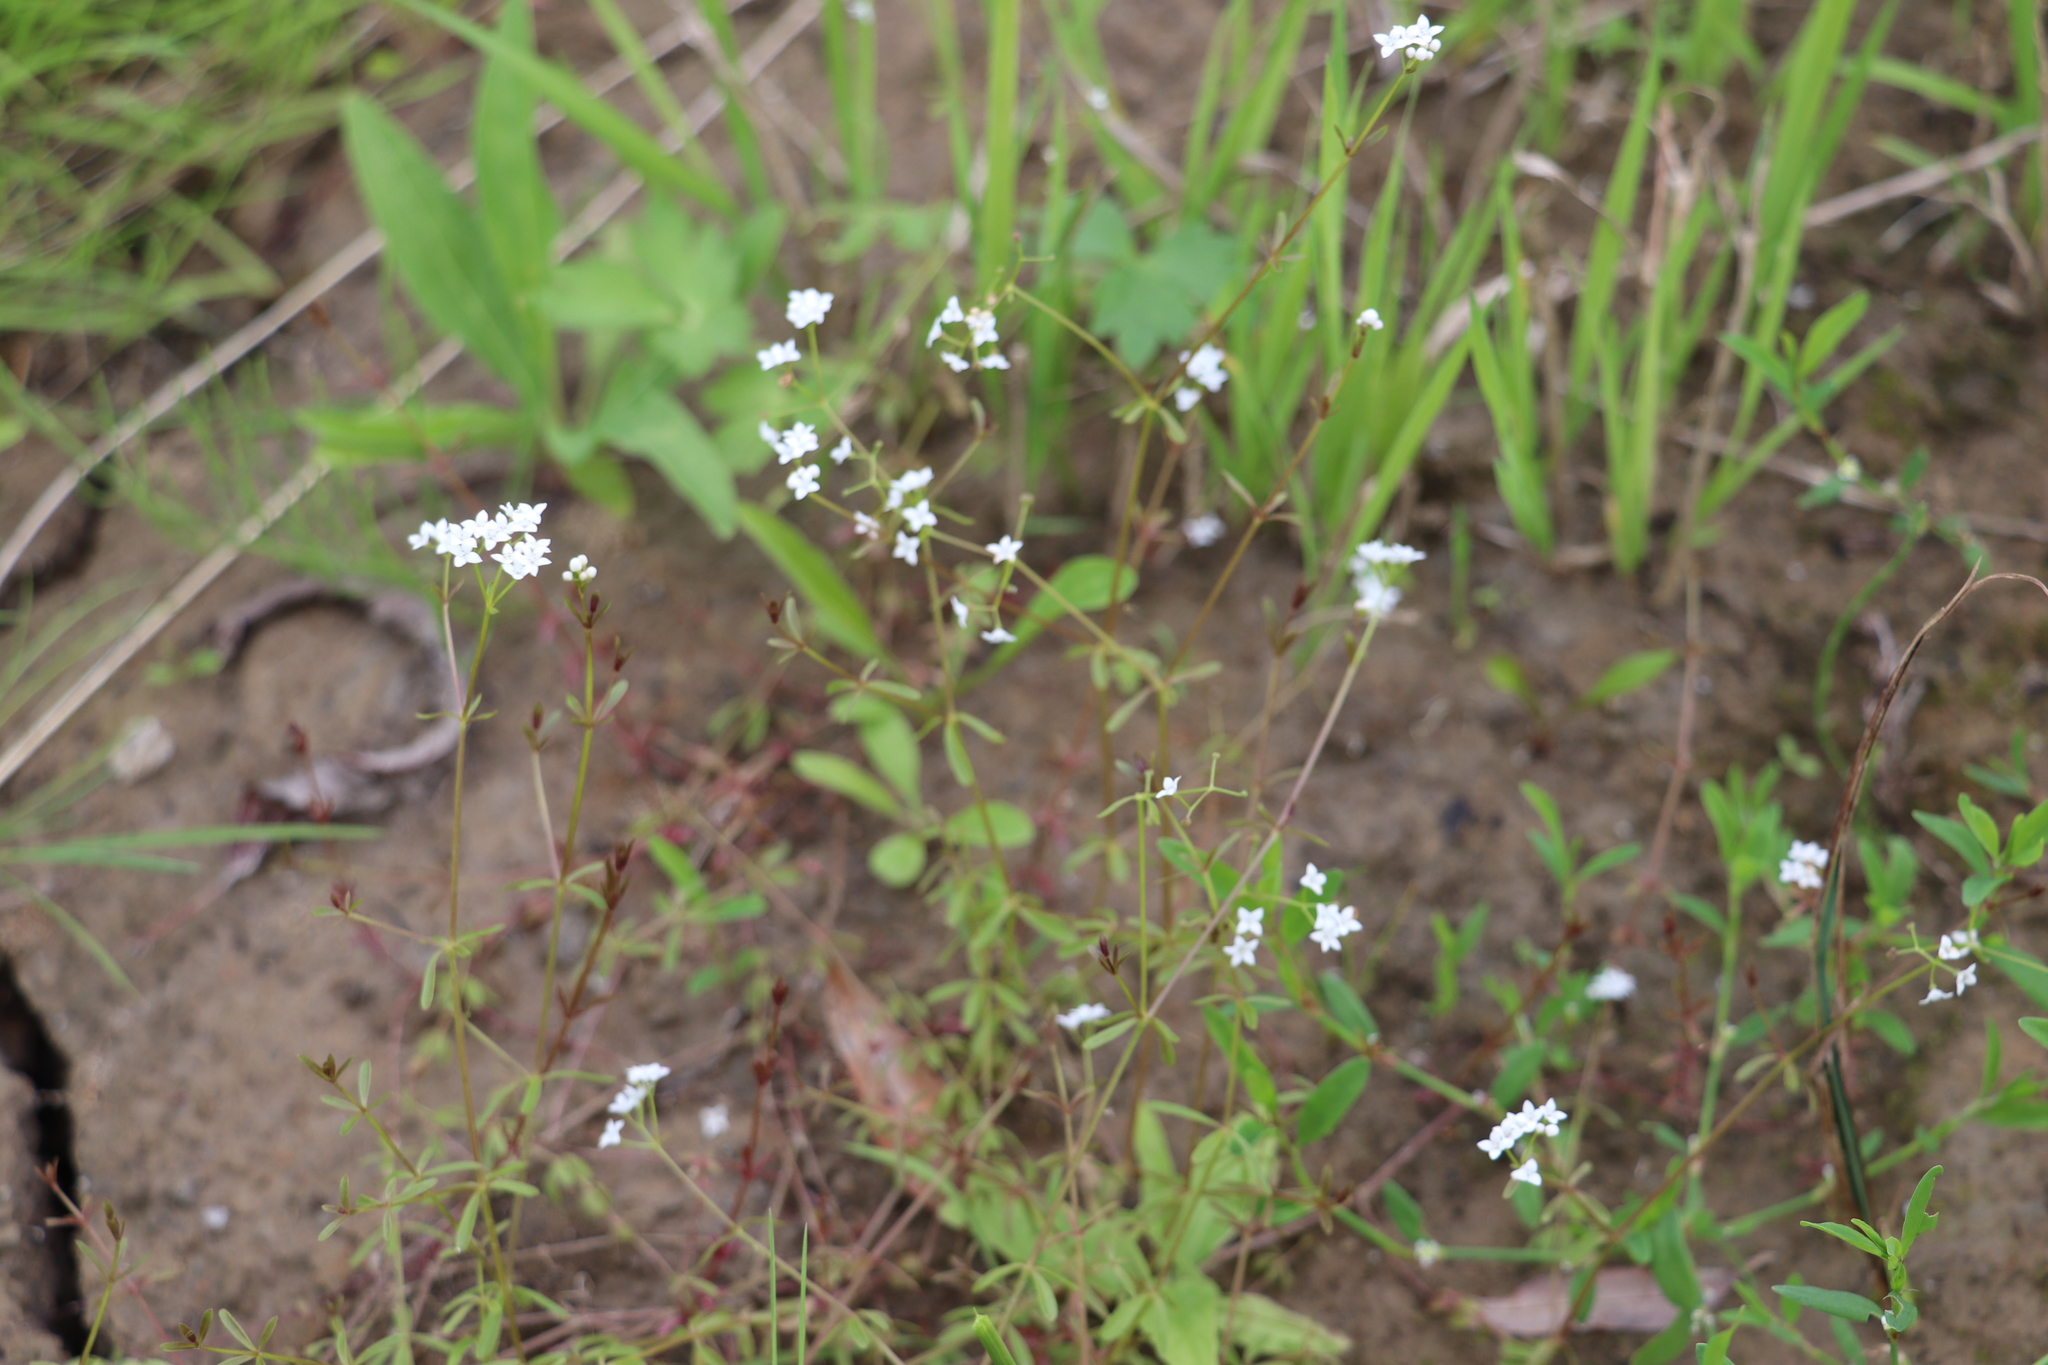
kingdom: Plantae
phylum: Tracheophyta
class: Magnoliopsida
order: Gentianales
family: Rubiaceae
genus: Galium
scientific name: Galium palustre
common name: Common marsh-bedstraw
